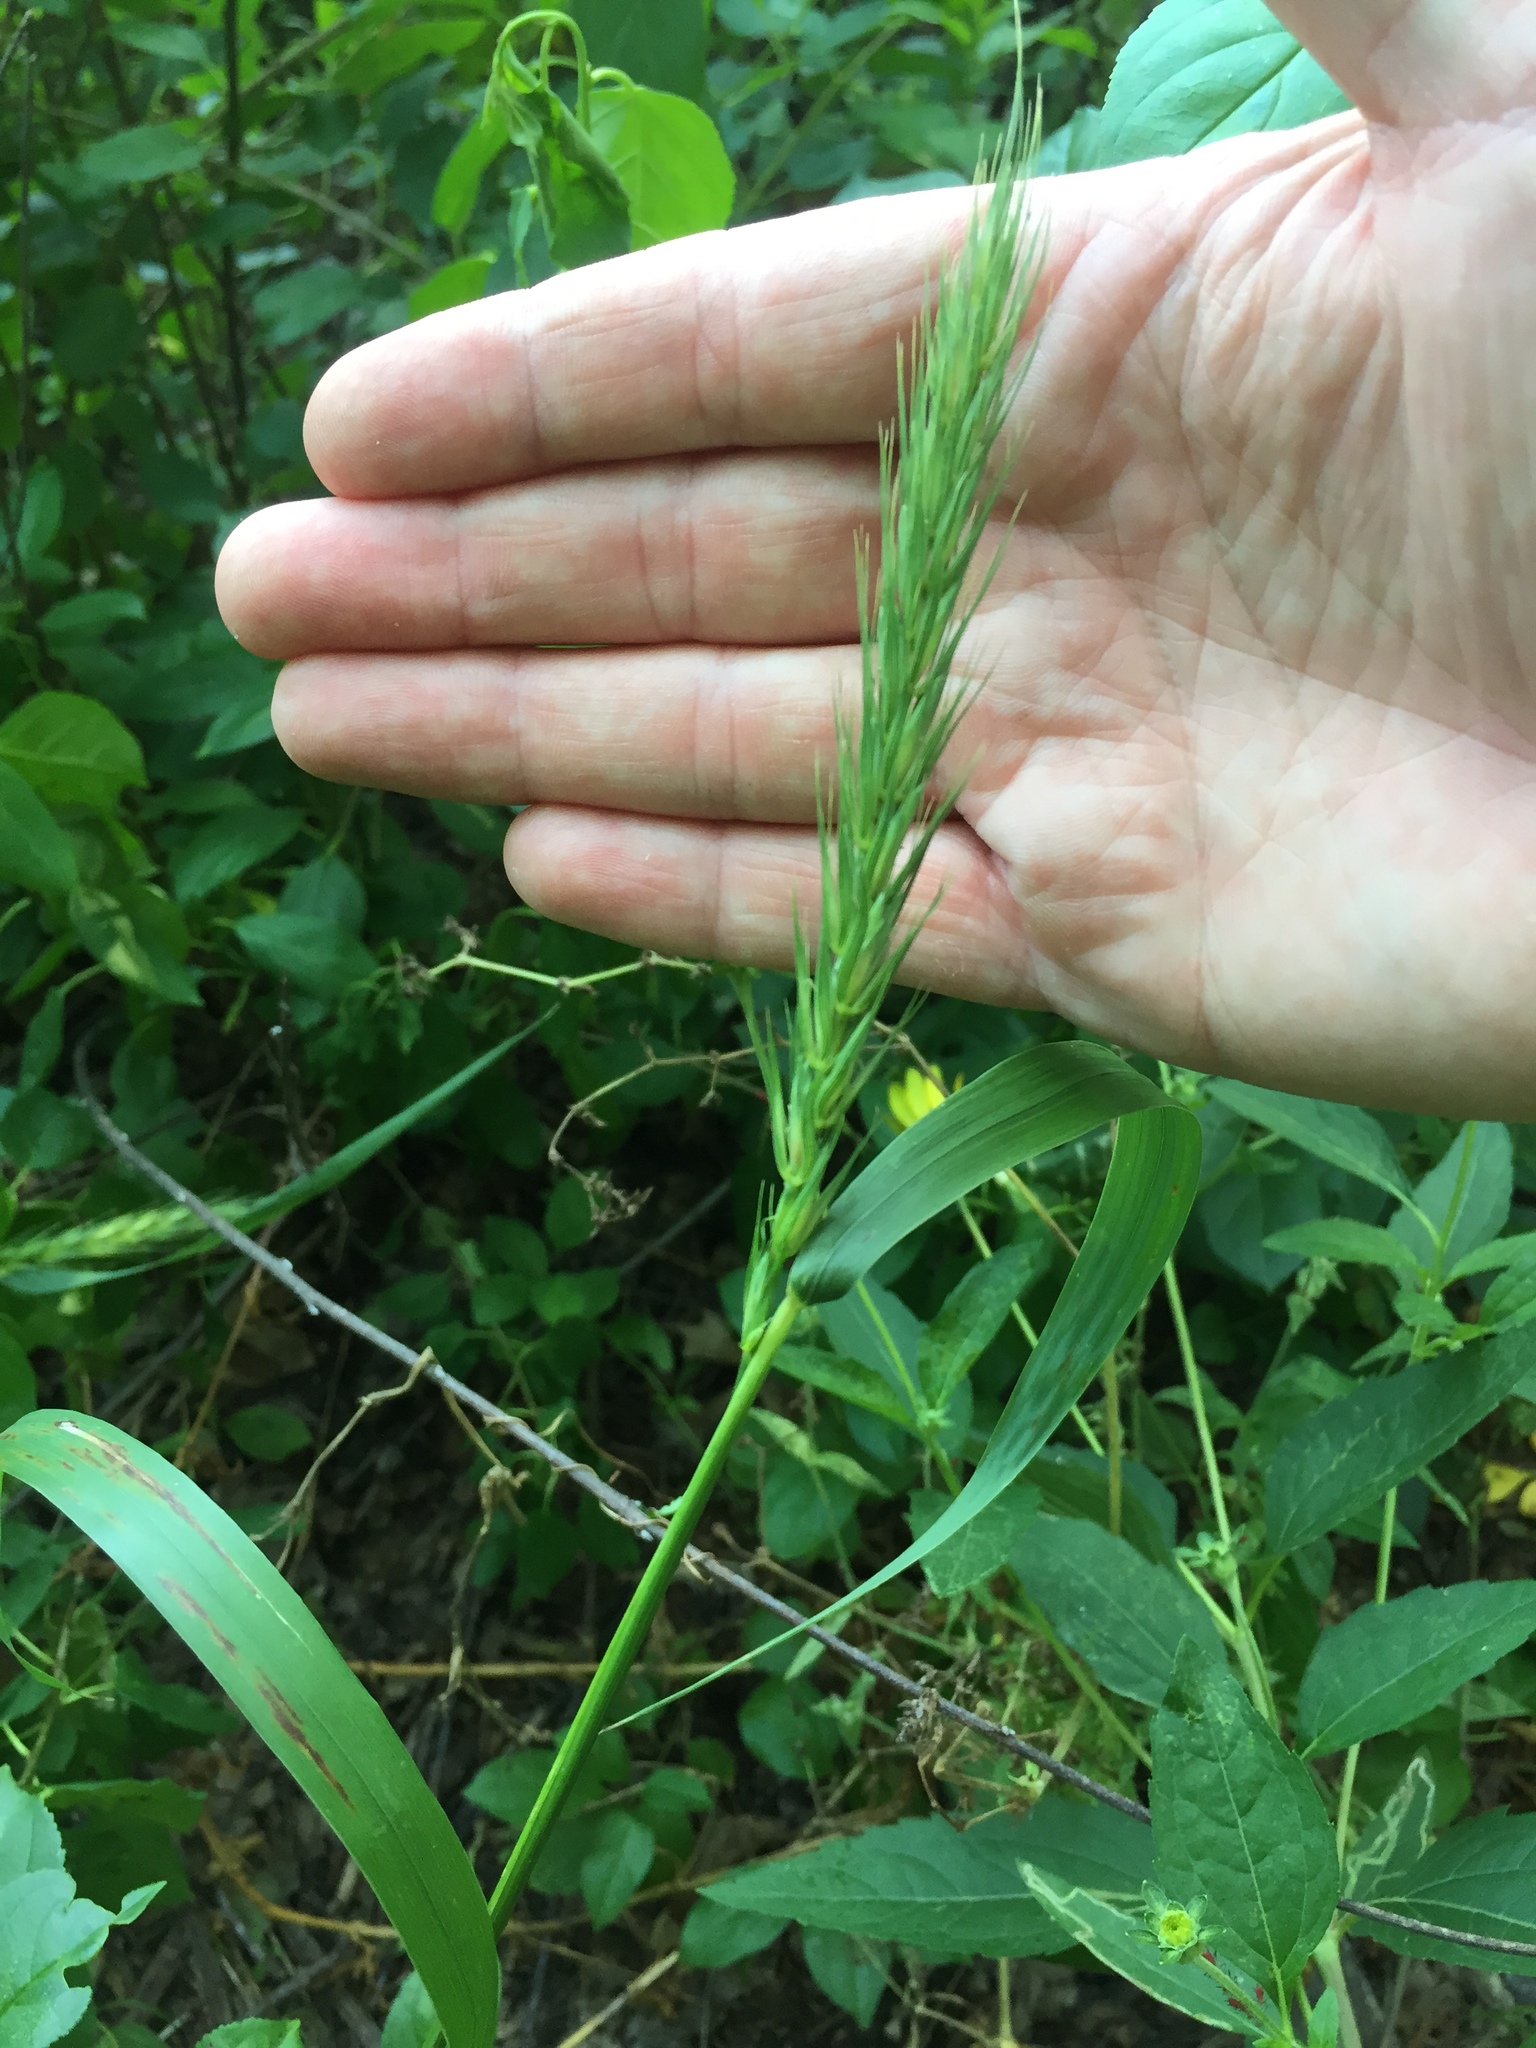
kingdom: Plantae
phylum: Tracheophyta
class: Liliopsida
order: Poales
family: Poaceae
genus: Elymus
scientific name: Elymus virginicus
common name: Common eastern wildrye
